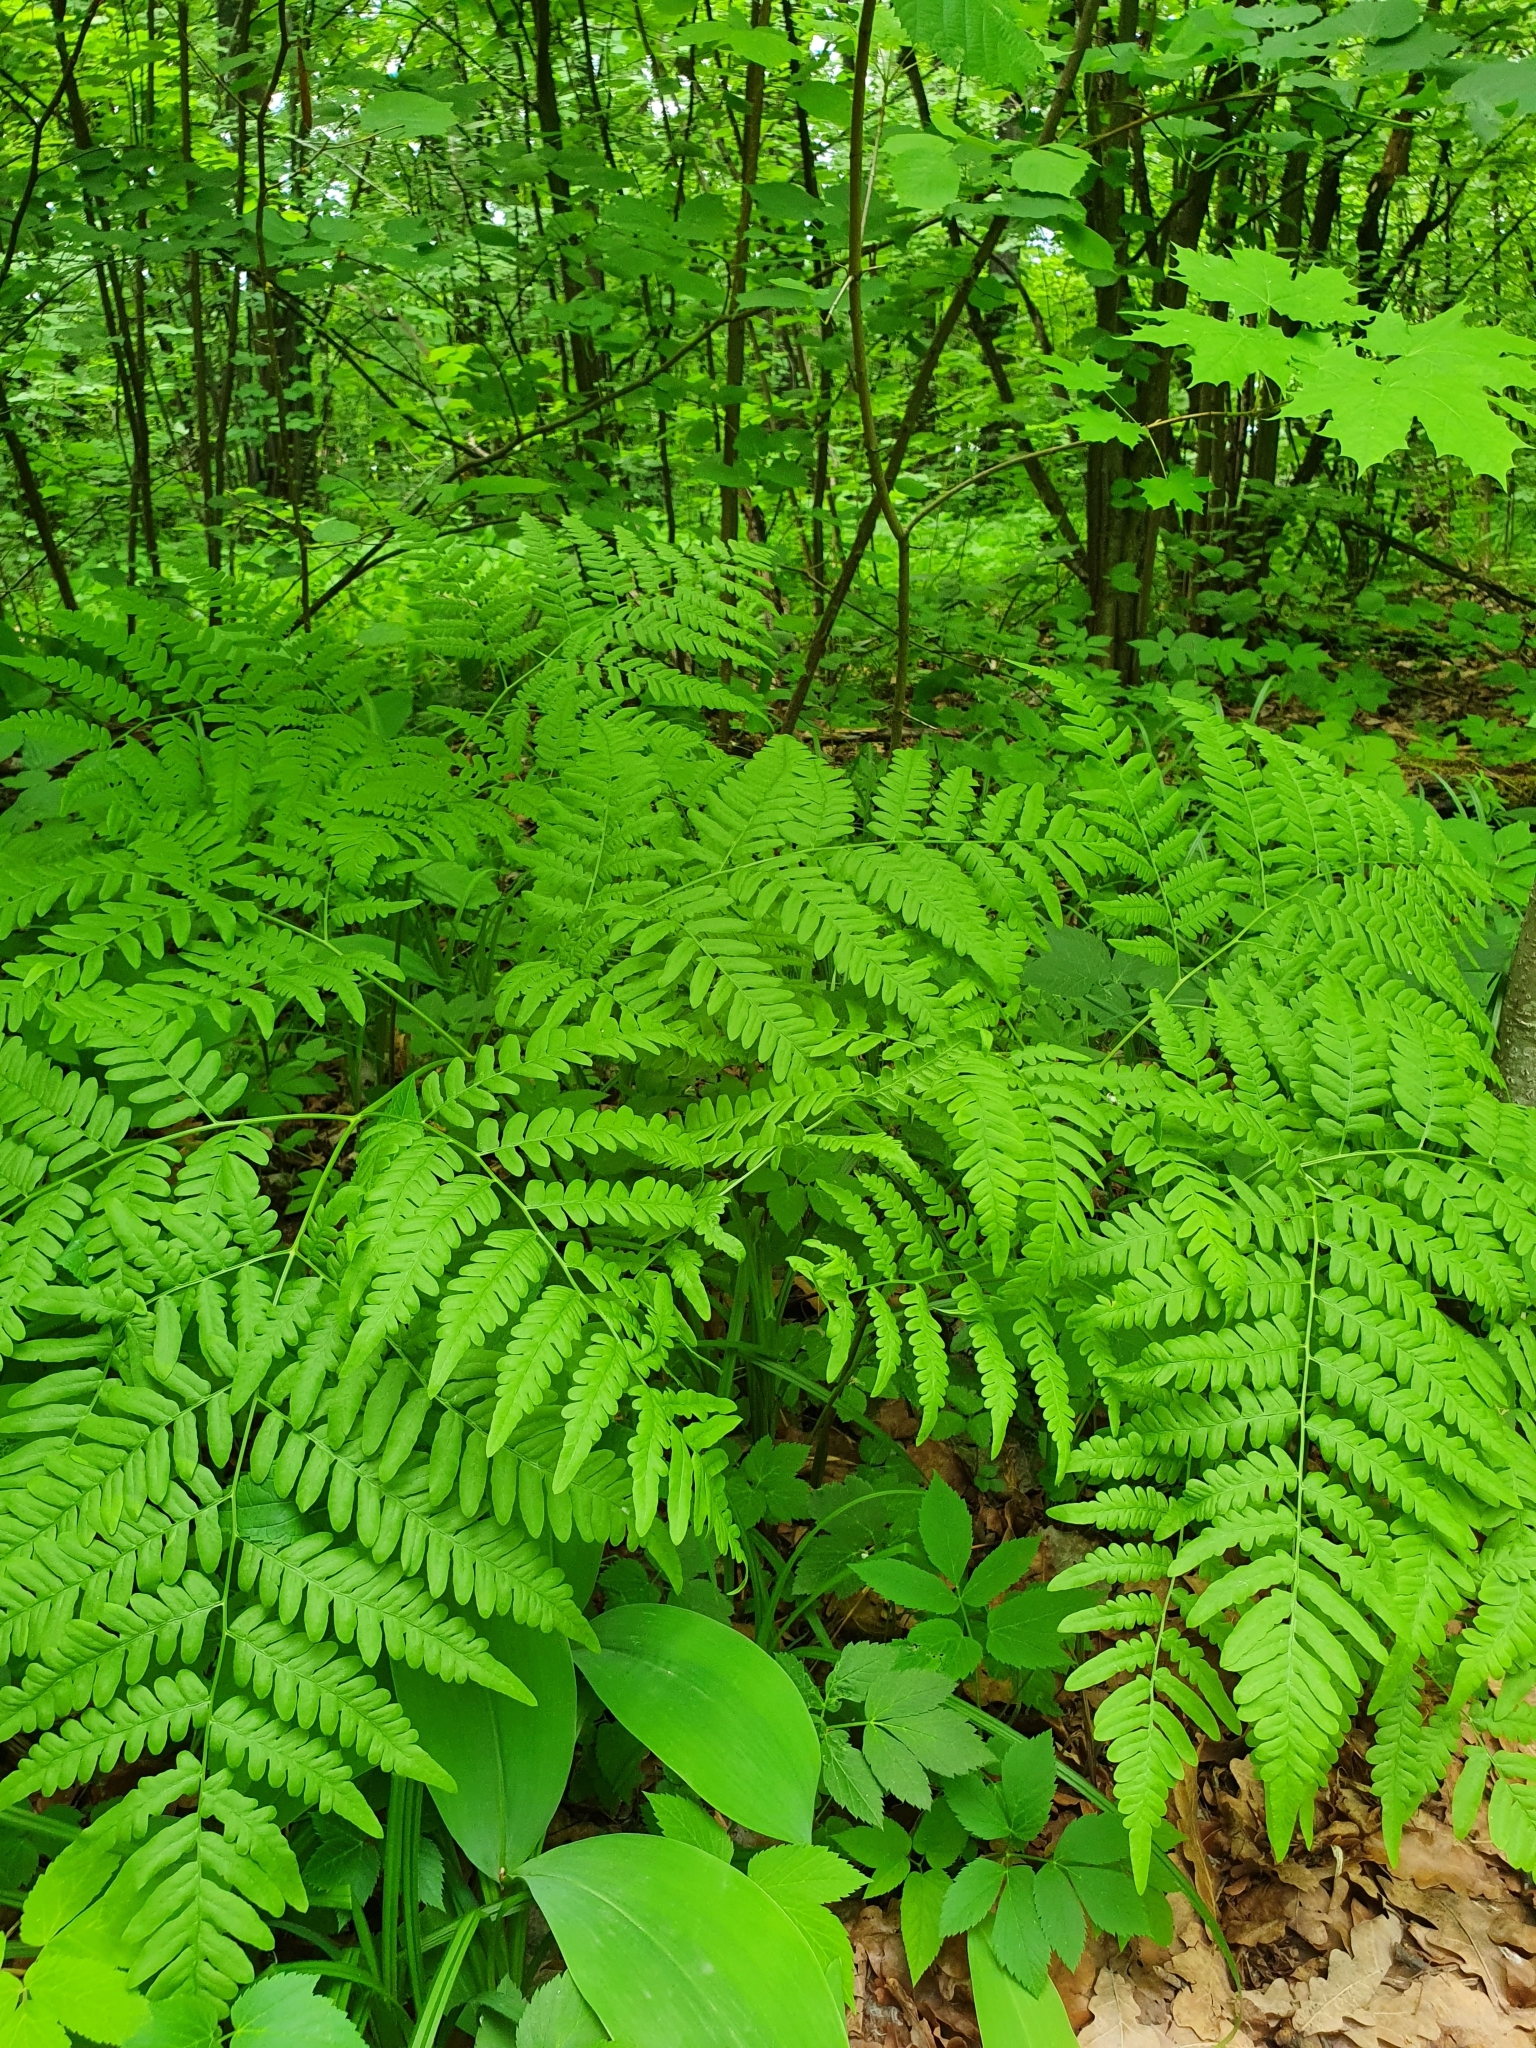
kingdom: Plantae
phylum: Tracheophyta
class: Polypodiopsida
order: Polypodiales
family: Dennstaedtiaceae
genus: Pteridium
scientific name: Pteridium aquilinum
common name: Bracken
